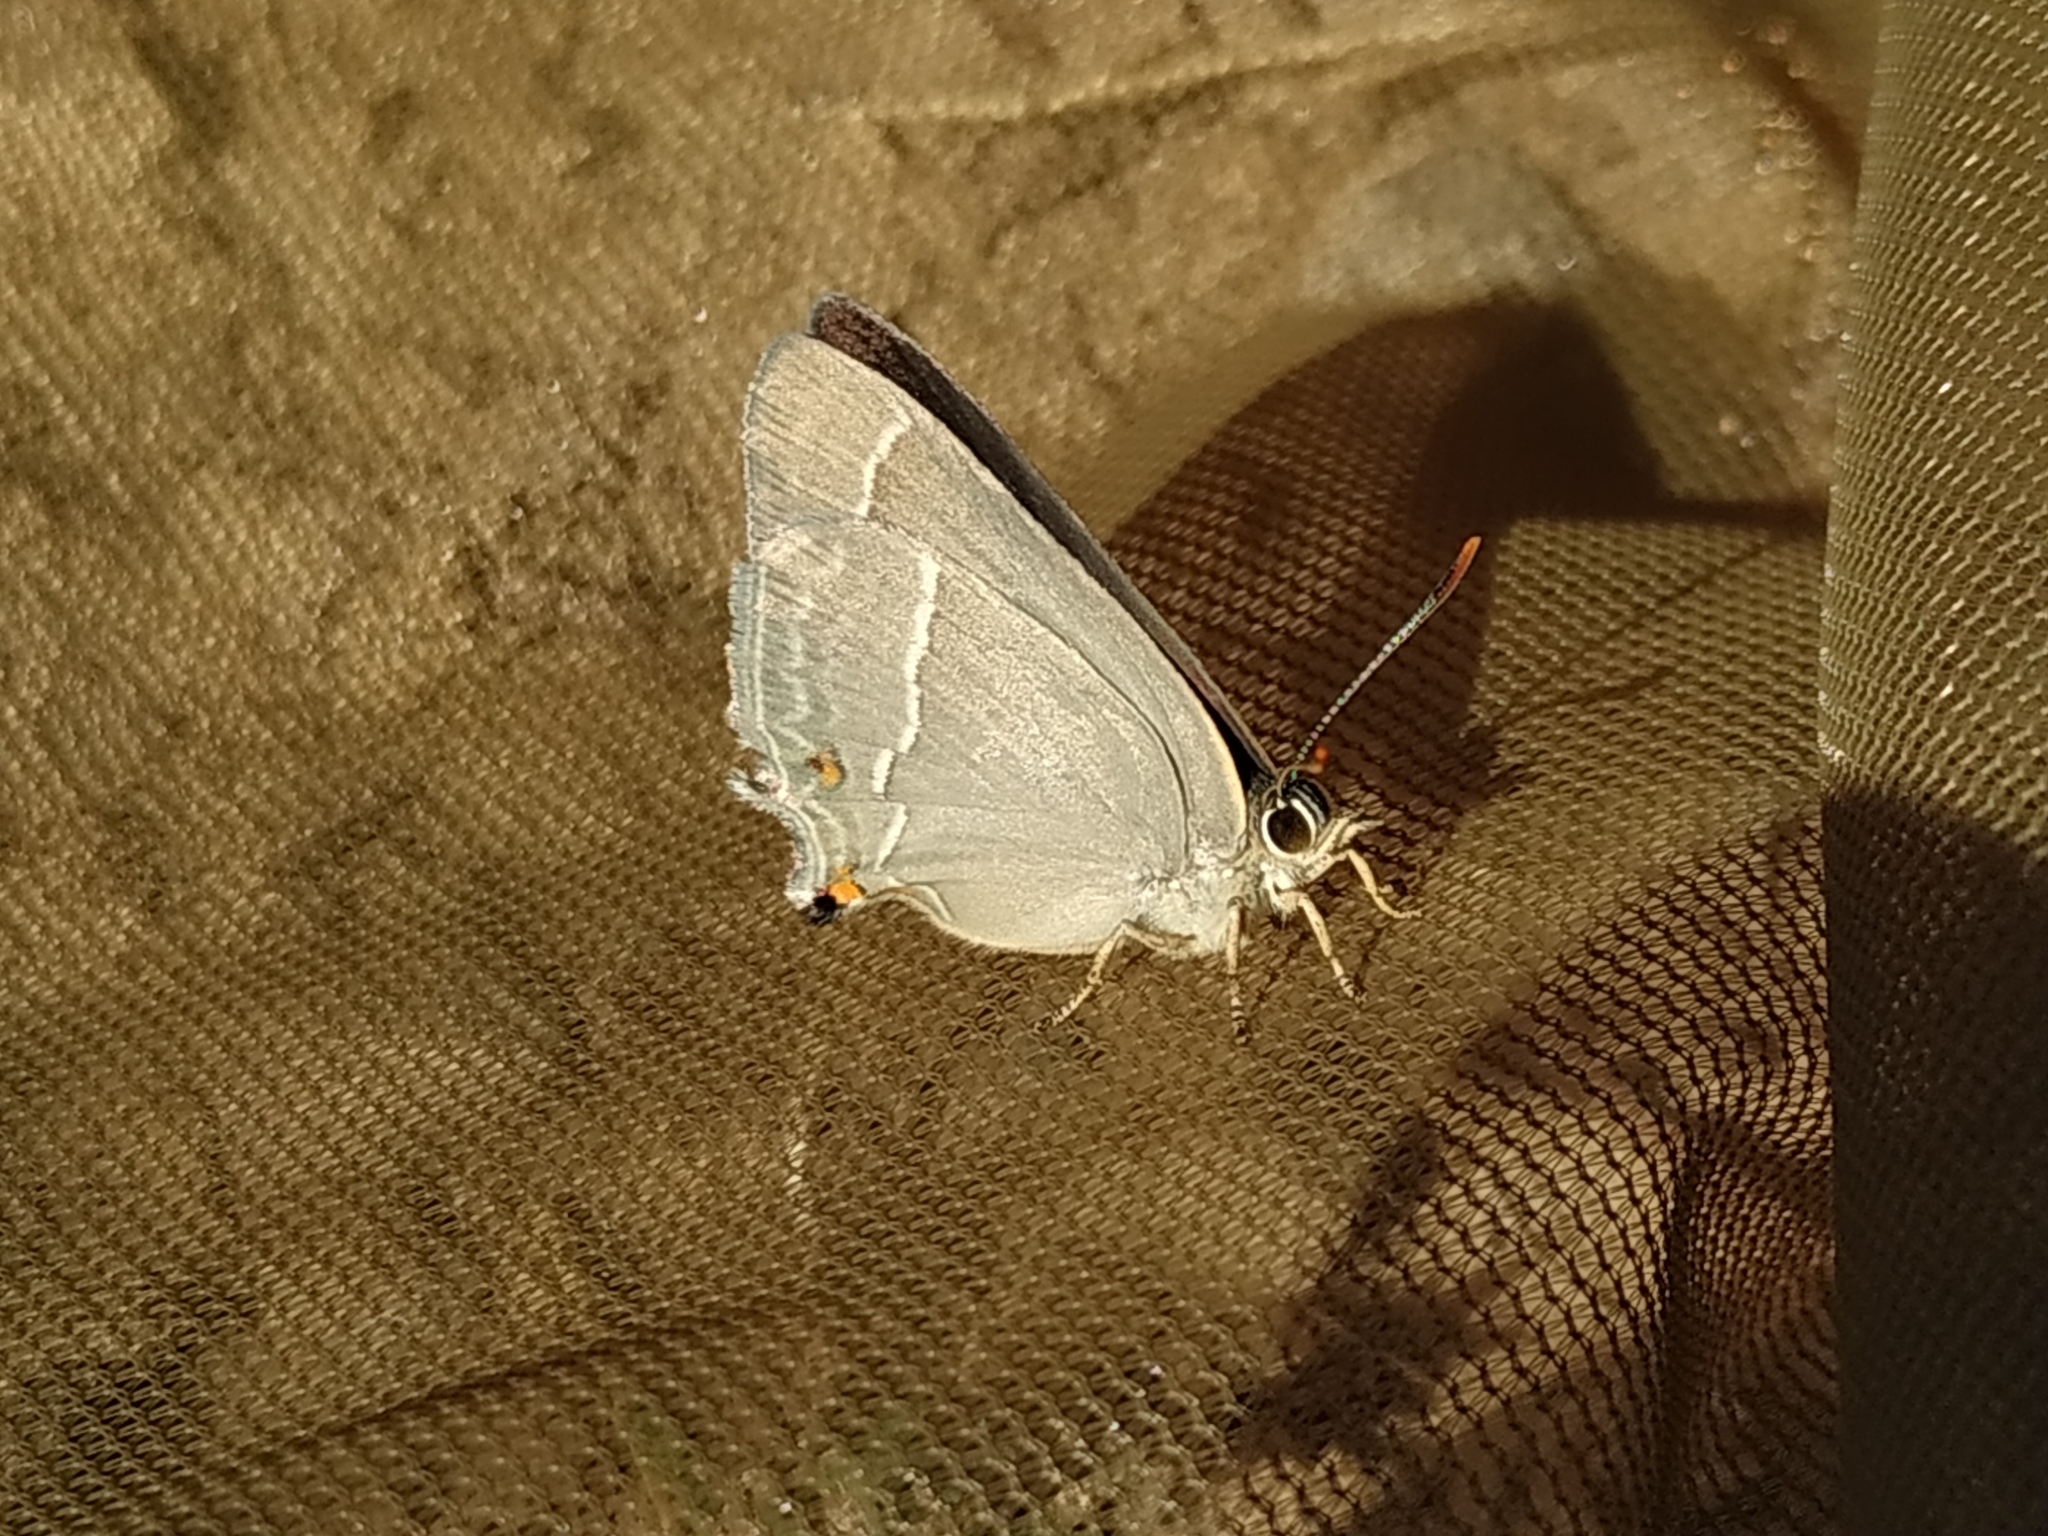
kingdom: Animalia
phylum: Arthropoda
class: Insecta
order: Lepidoptera
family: Lycaenidae
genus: Quercusia
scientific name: Quercusia quercus
